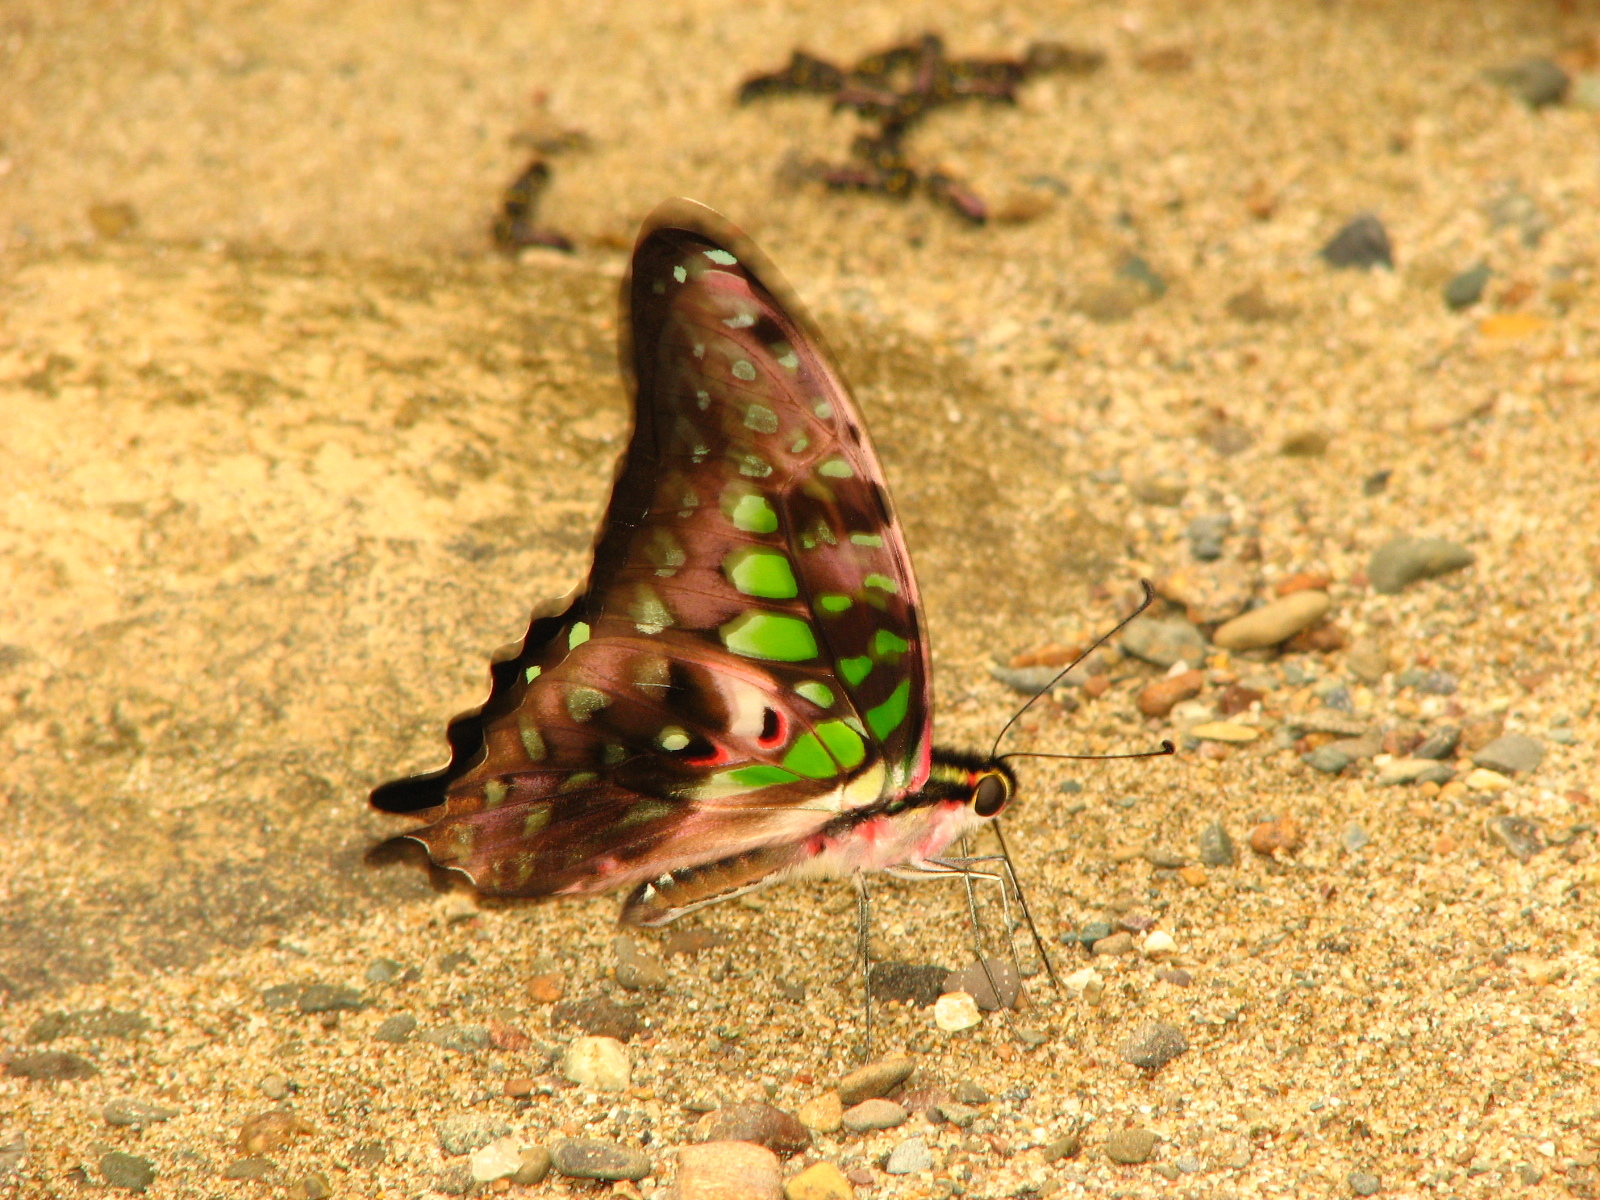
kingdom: Animalia
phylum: Arthropoda
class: Insecta
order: Lepidoptera
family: Papilionidae
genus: Graphium
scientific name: Graphium agamemnon
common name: Tailed jay
